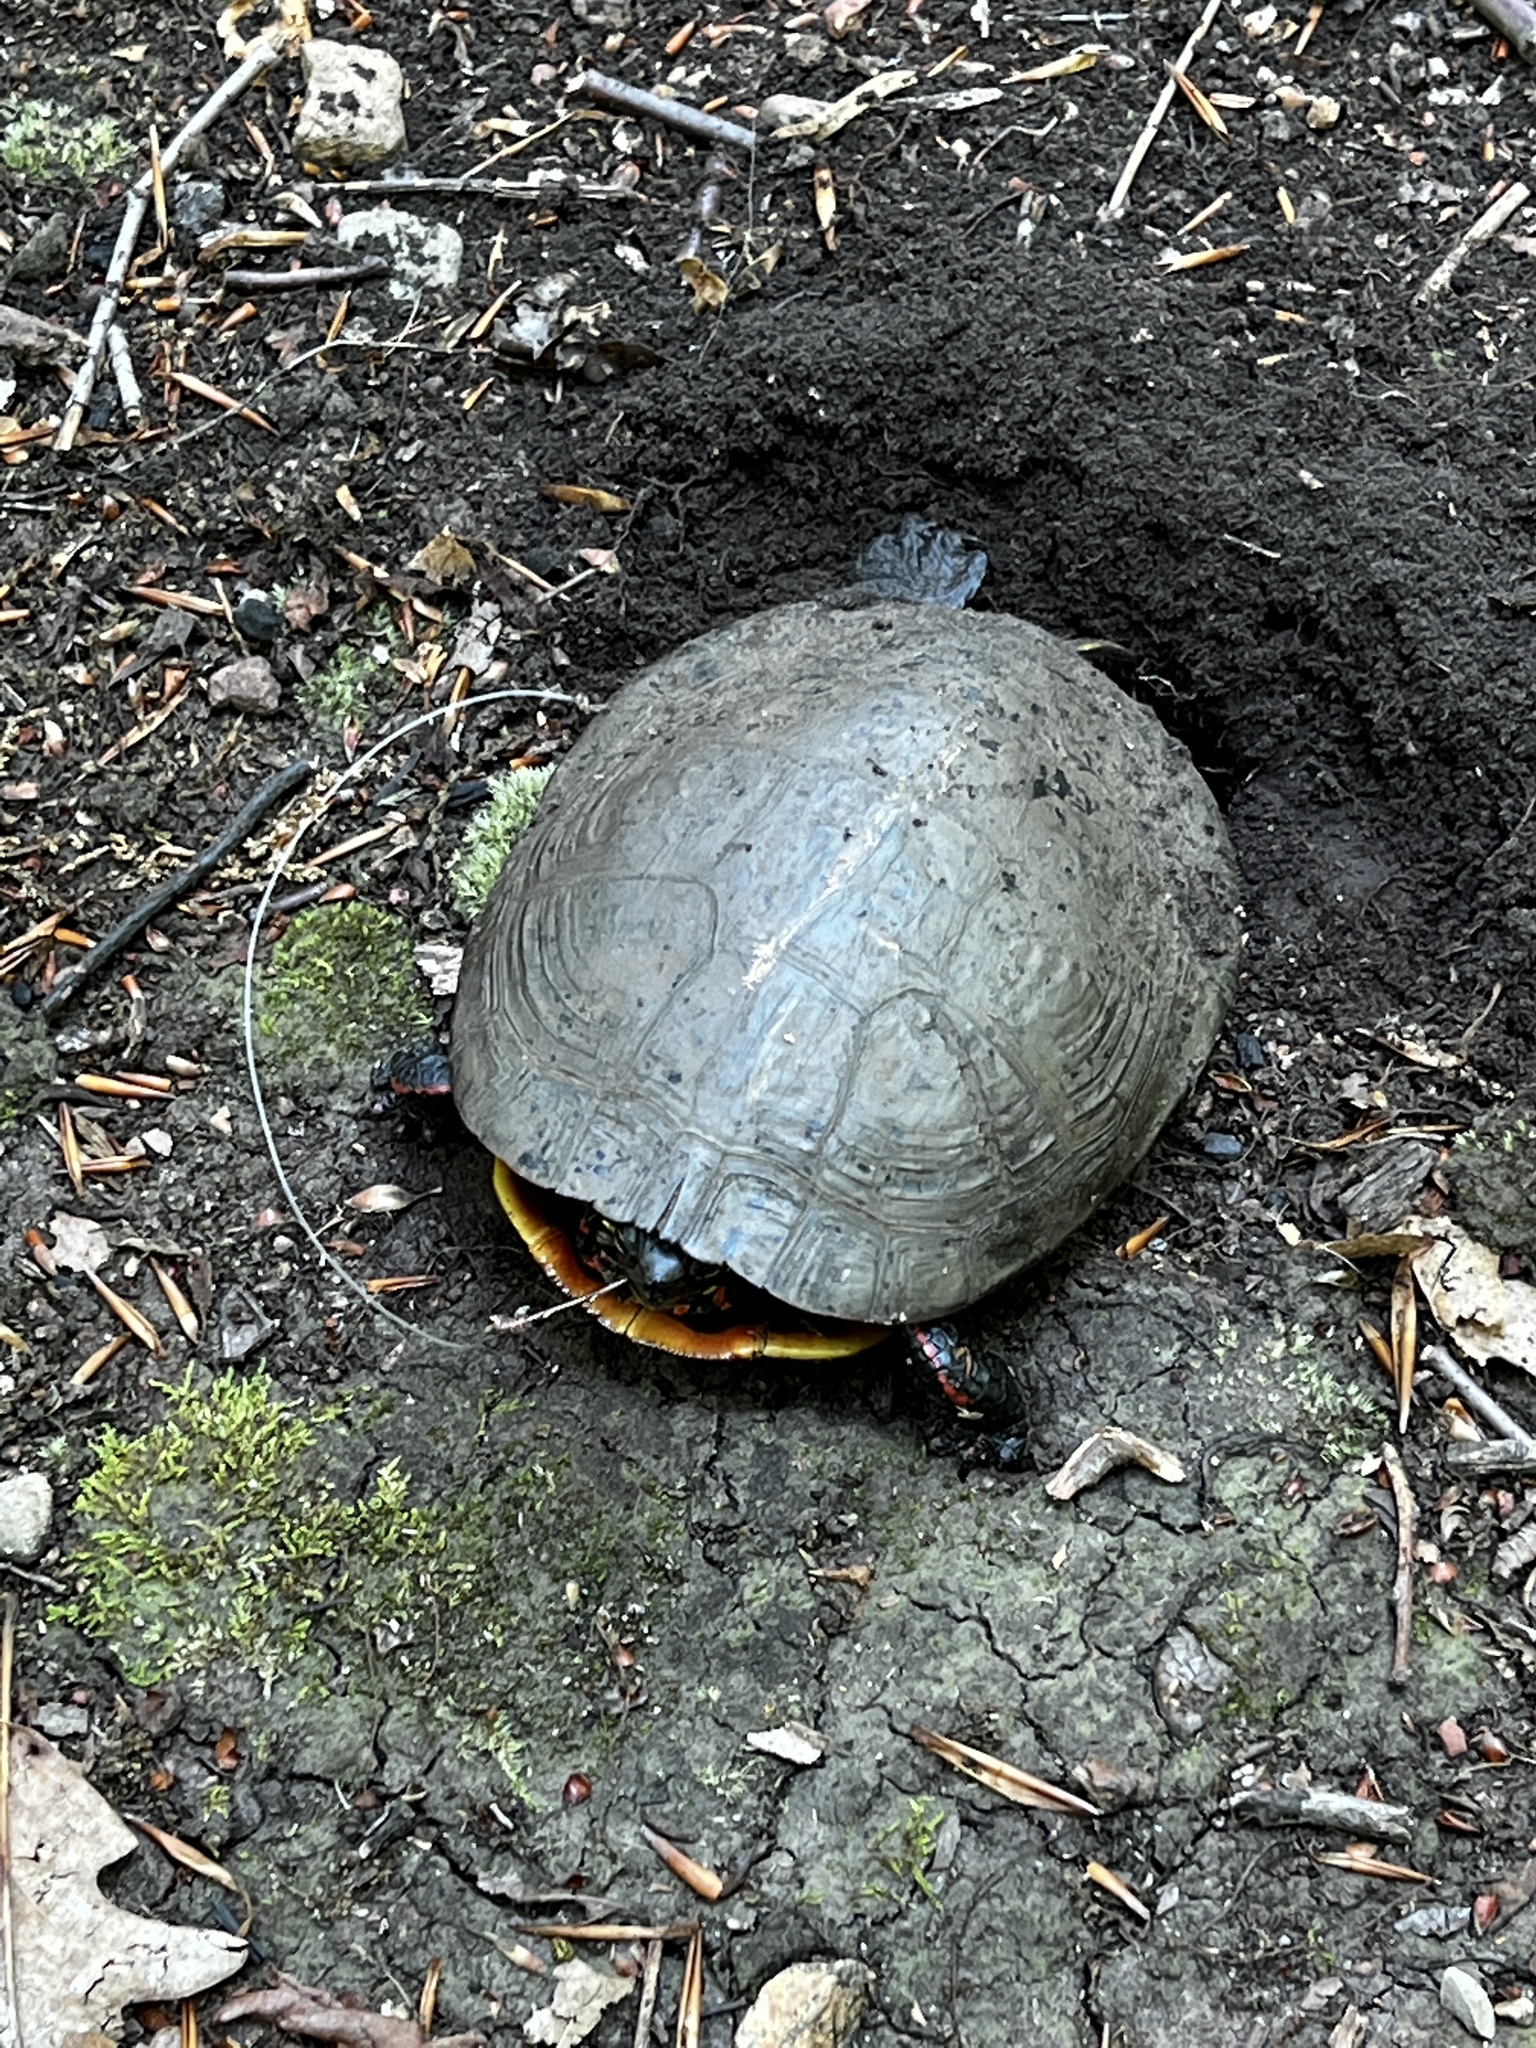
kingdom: Animalia
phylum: Chordata
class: Testudines
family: Emydidae
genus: Chrysemys
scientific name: Chrysemys picta
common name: Painted turtle
